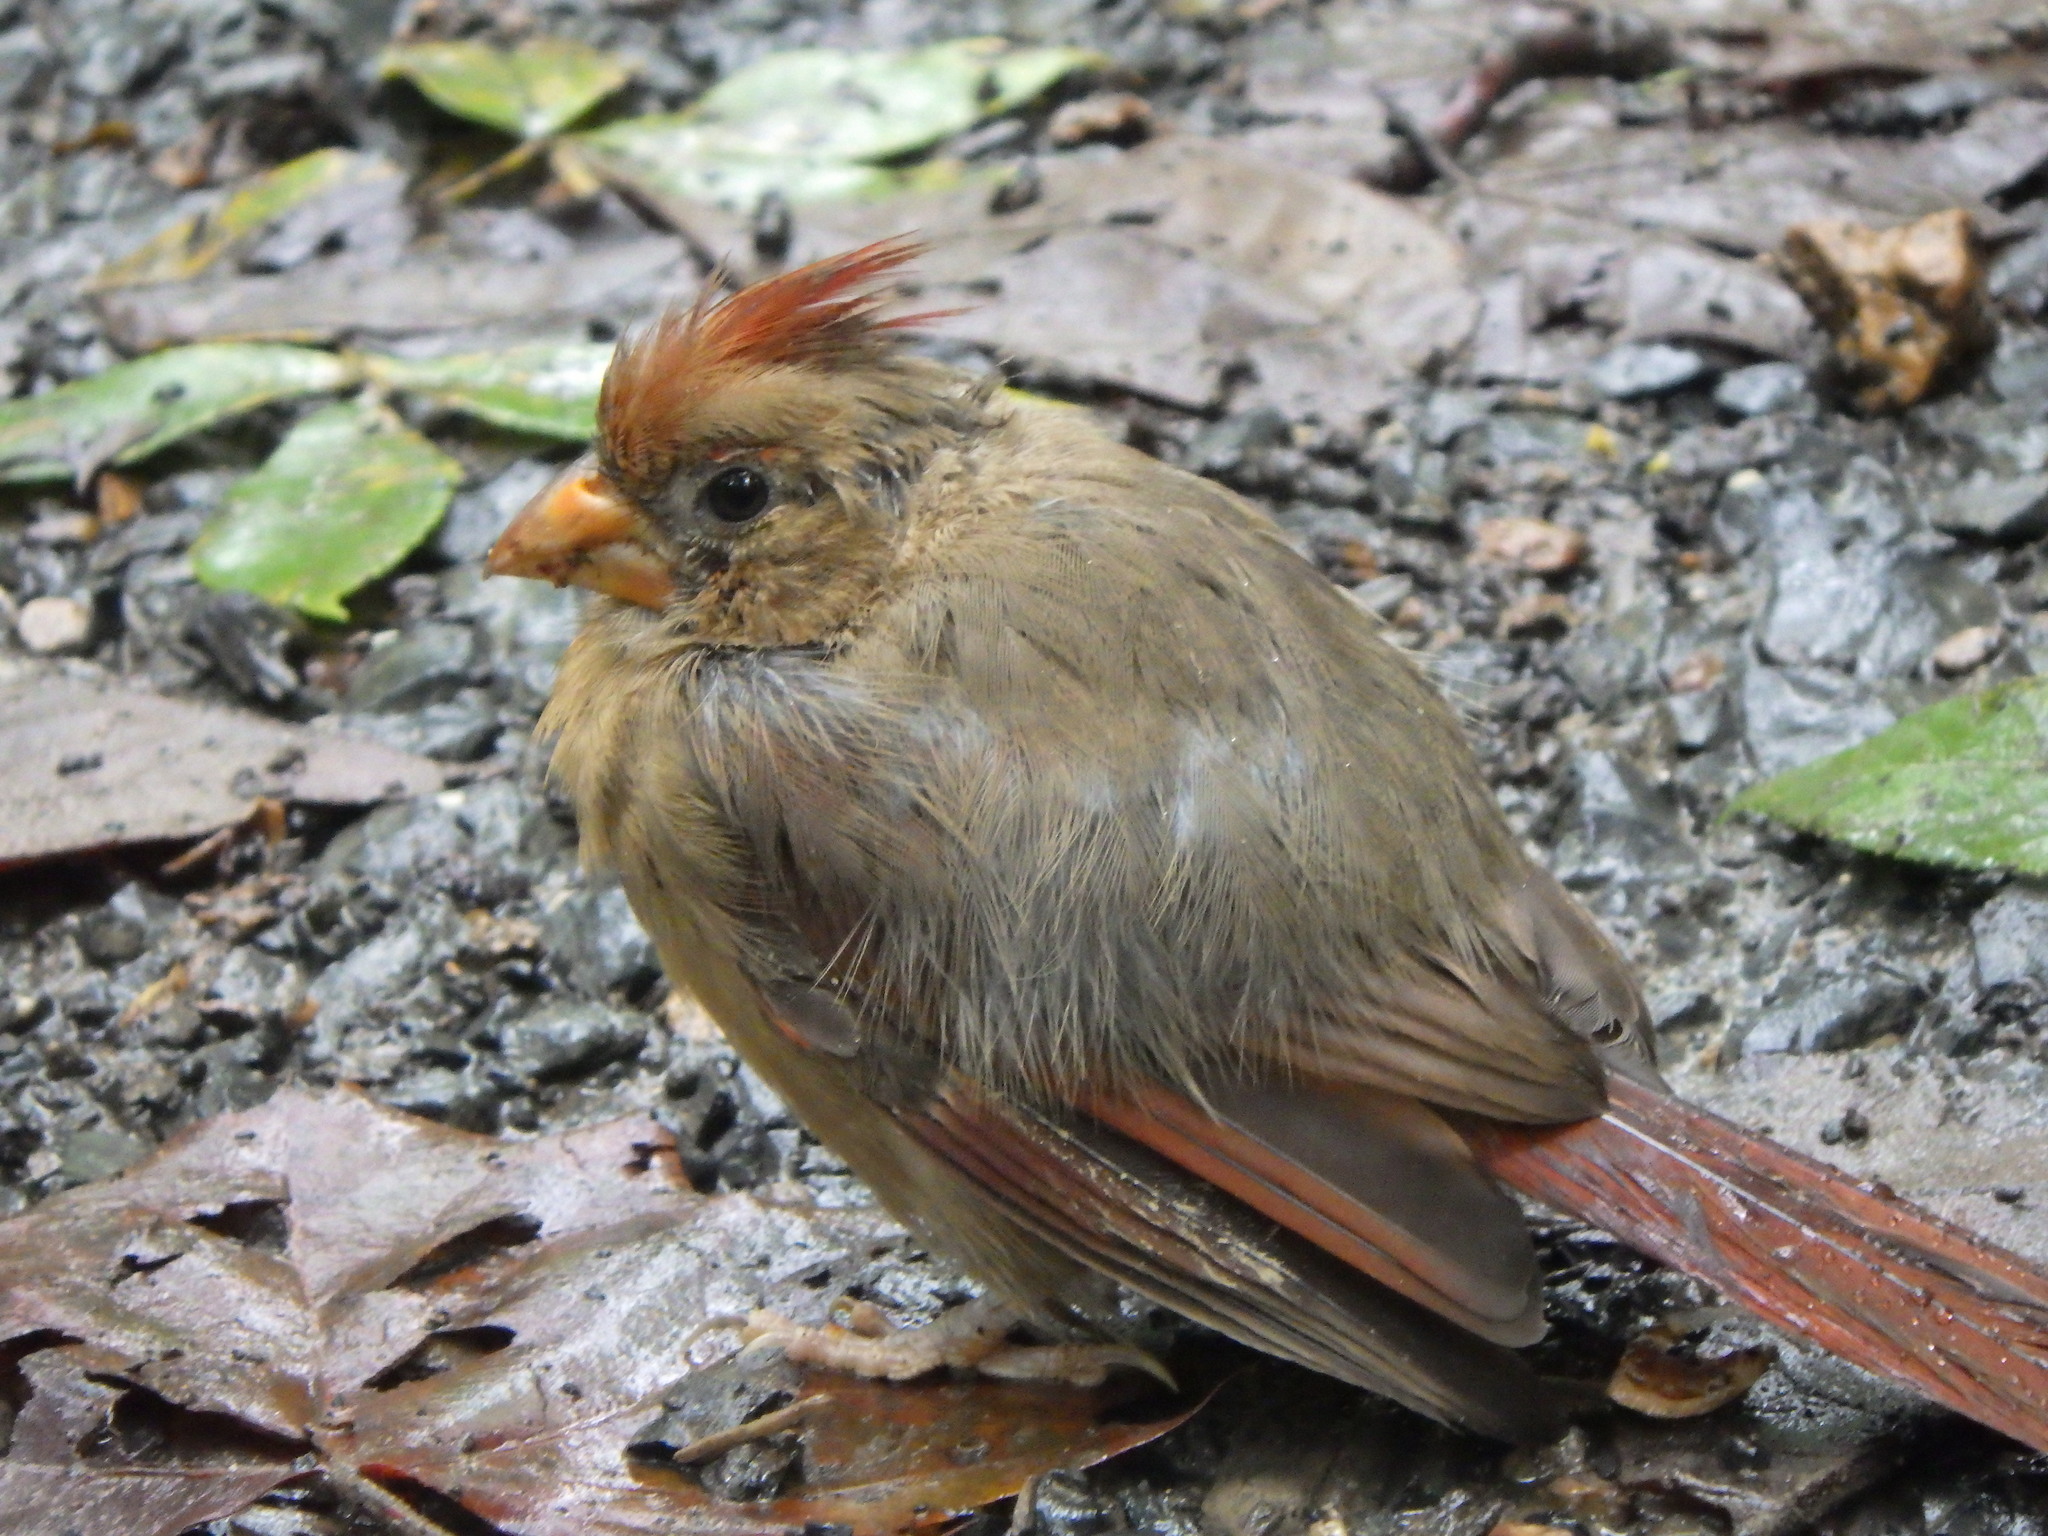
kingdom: Animalia
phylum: Chordata
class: Aves
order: Passeriformes
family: Cardinalidae
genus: Cardinalis
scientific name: Cardinalis cardinalis
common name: Northern cardinal
